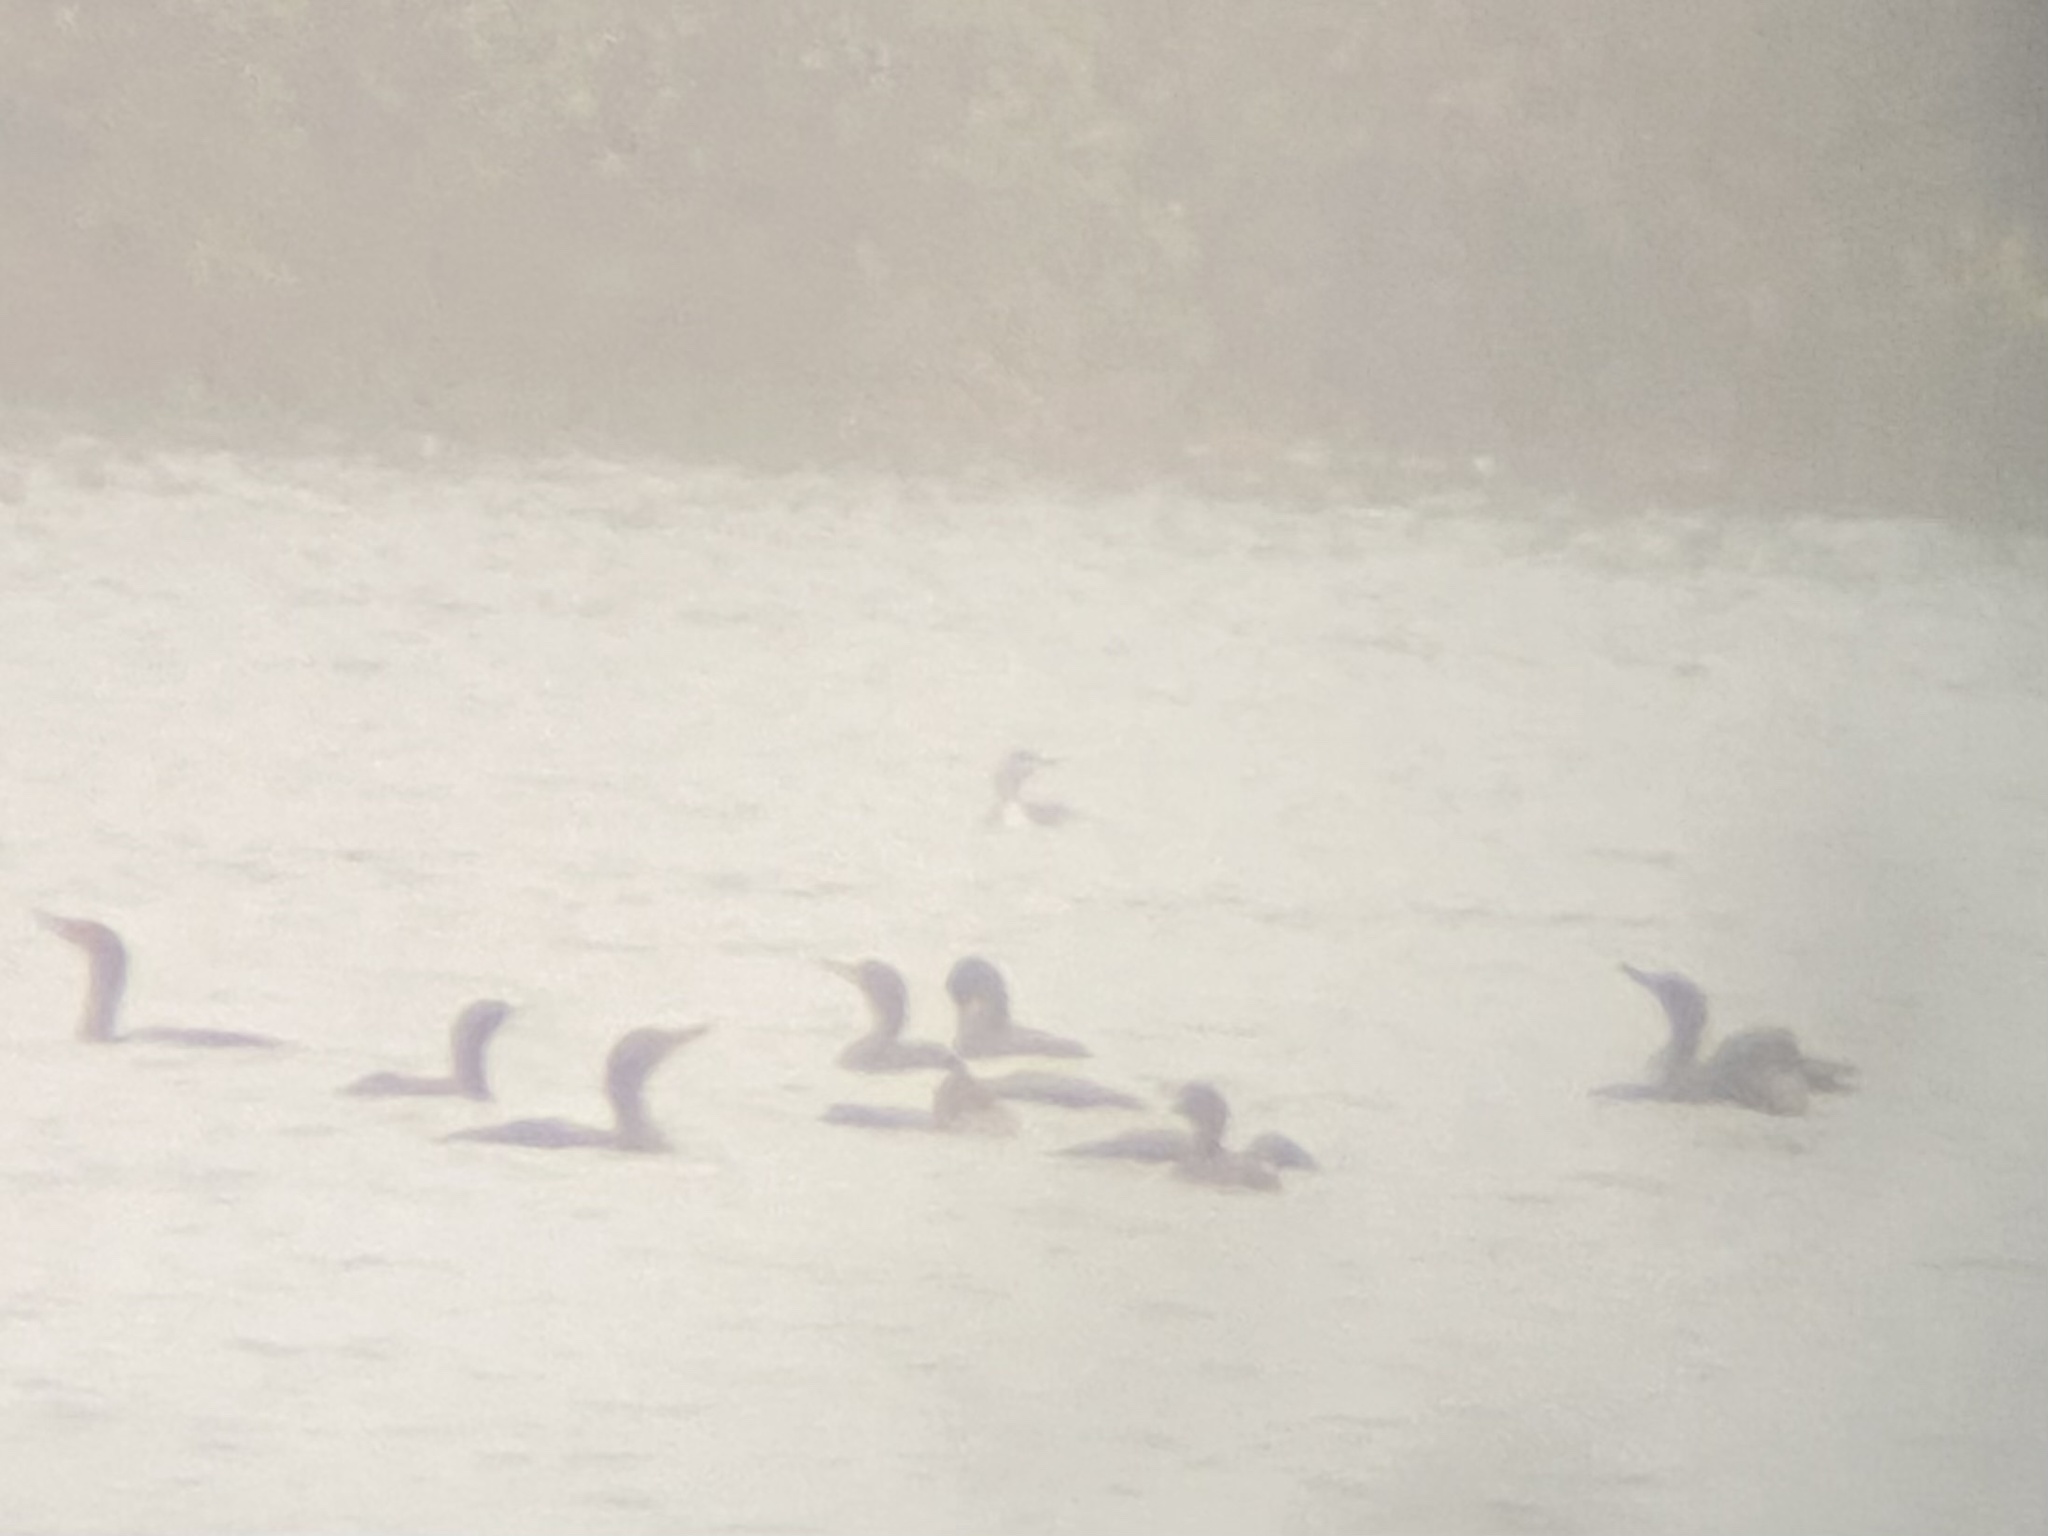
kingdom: Animalia
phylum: Chordata
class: Aves
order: Suliformes
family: Phalacrocoracidae
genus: Phalacrocorax
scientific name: Phalacrocorax auritus
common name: Double-crested cormorant
